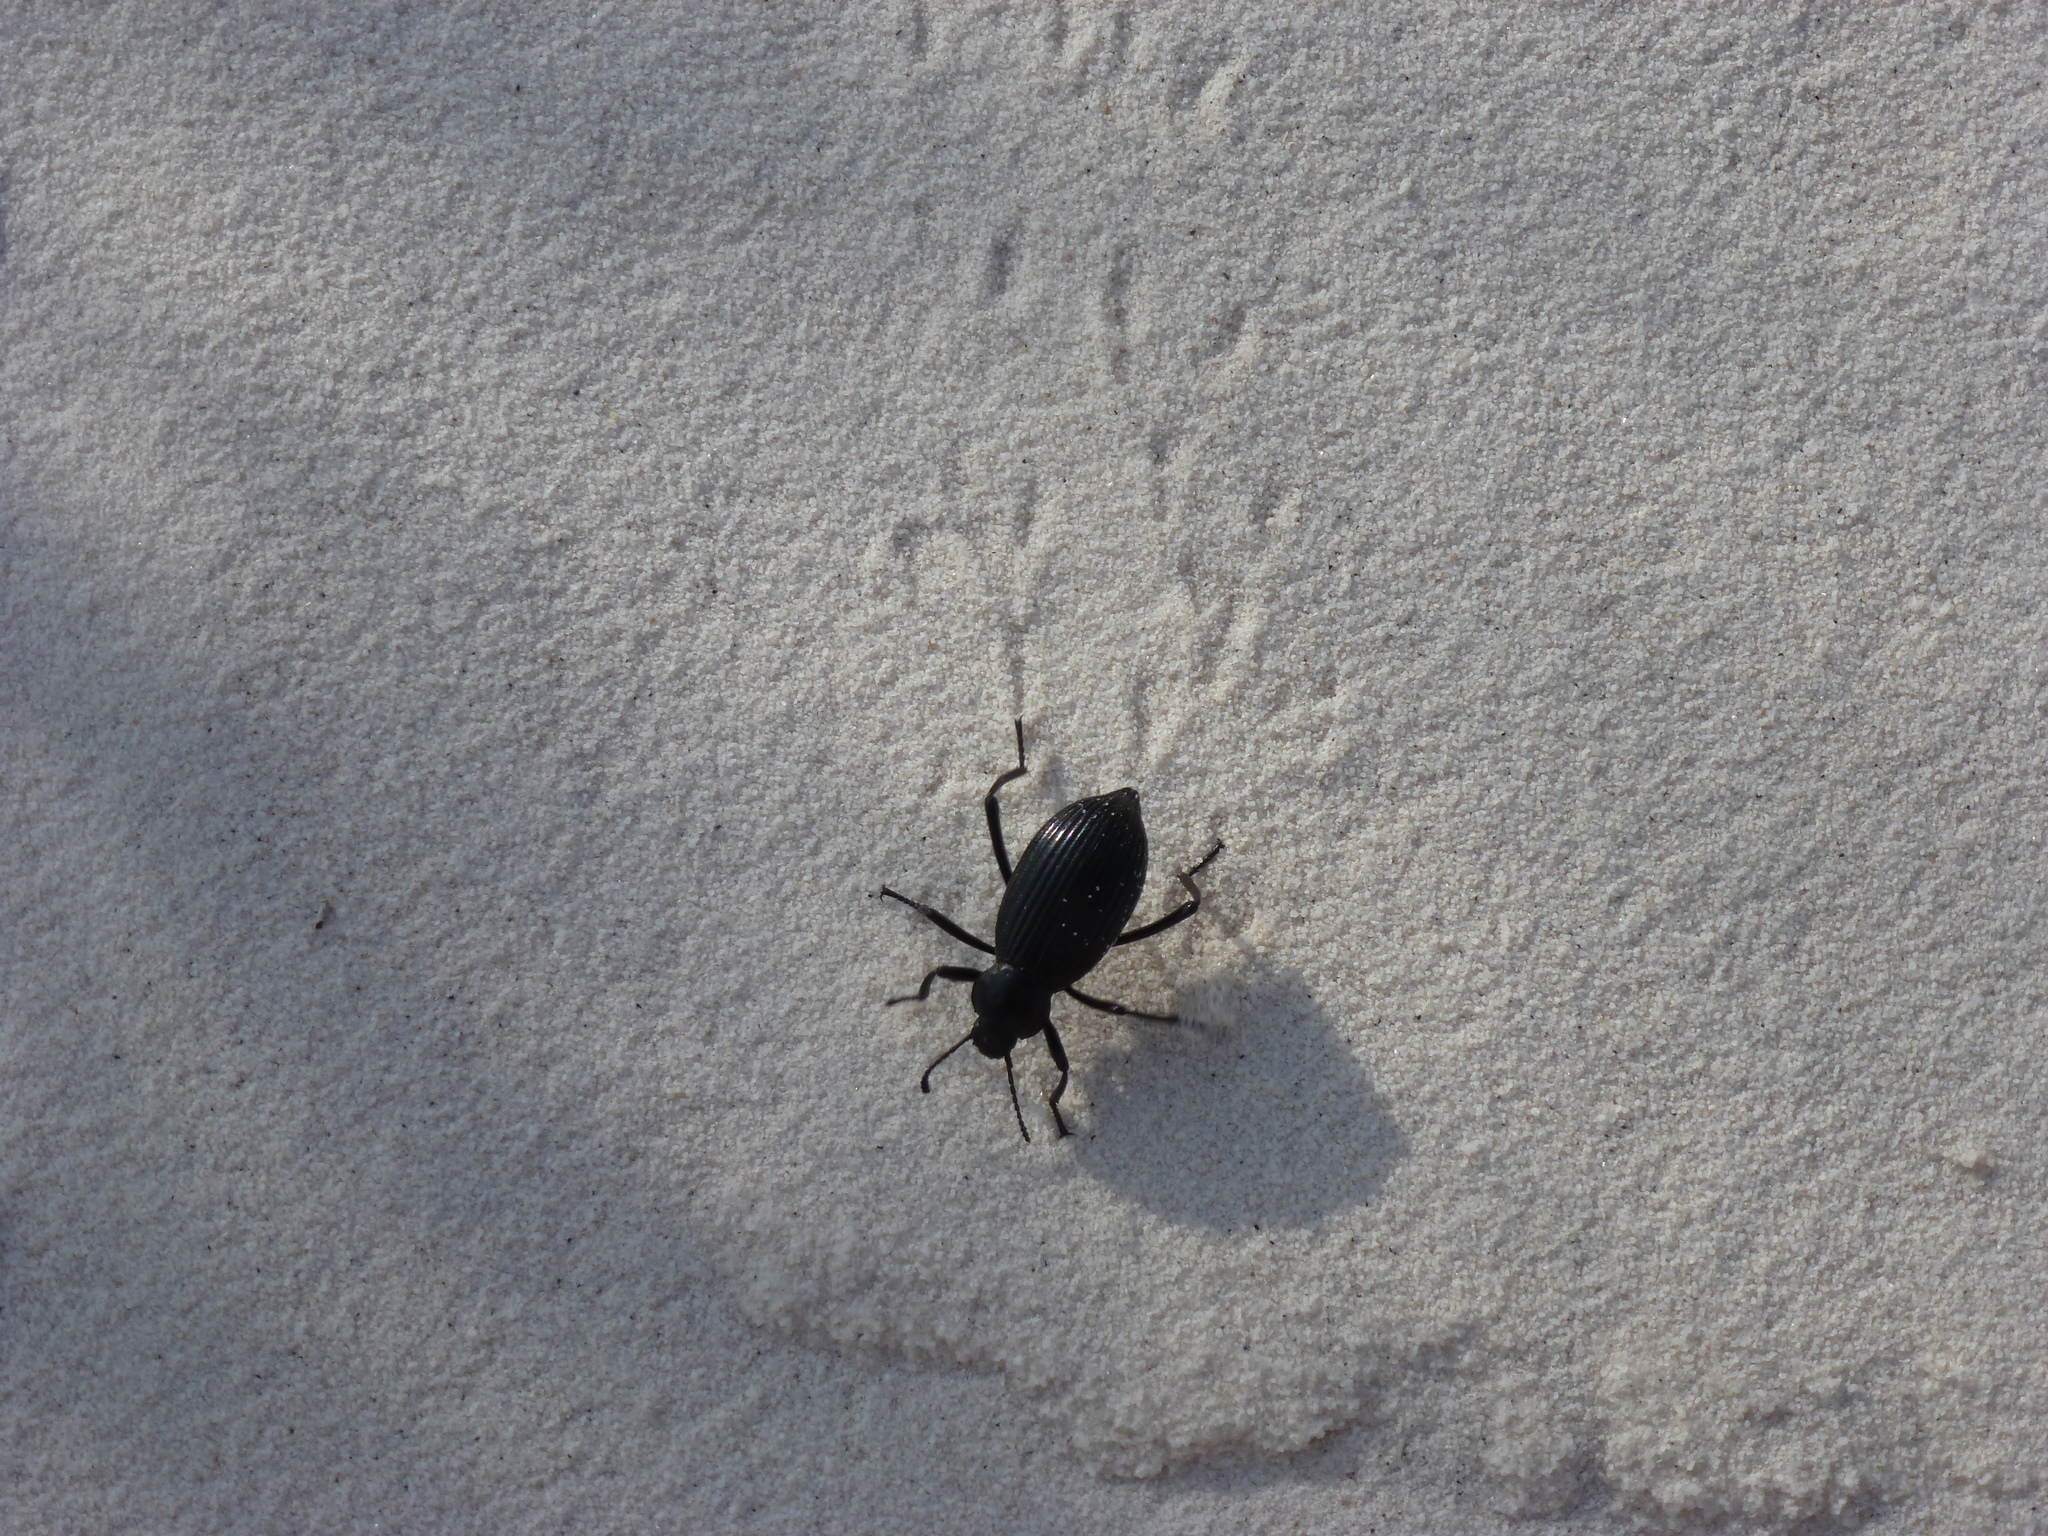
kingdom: Animalia
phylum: Arthropoda
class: Insecta
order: Coleoptera
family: Tenebrionidae
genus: Eleodes
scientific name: Eleodes hispilabris
